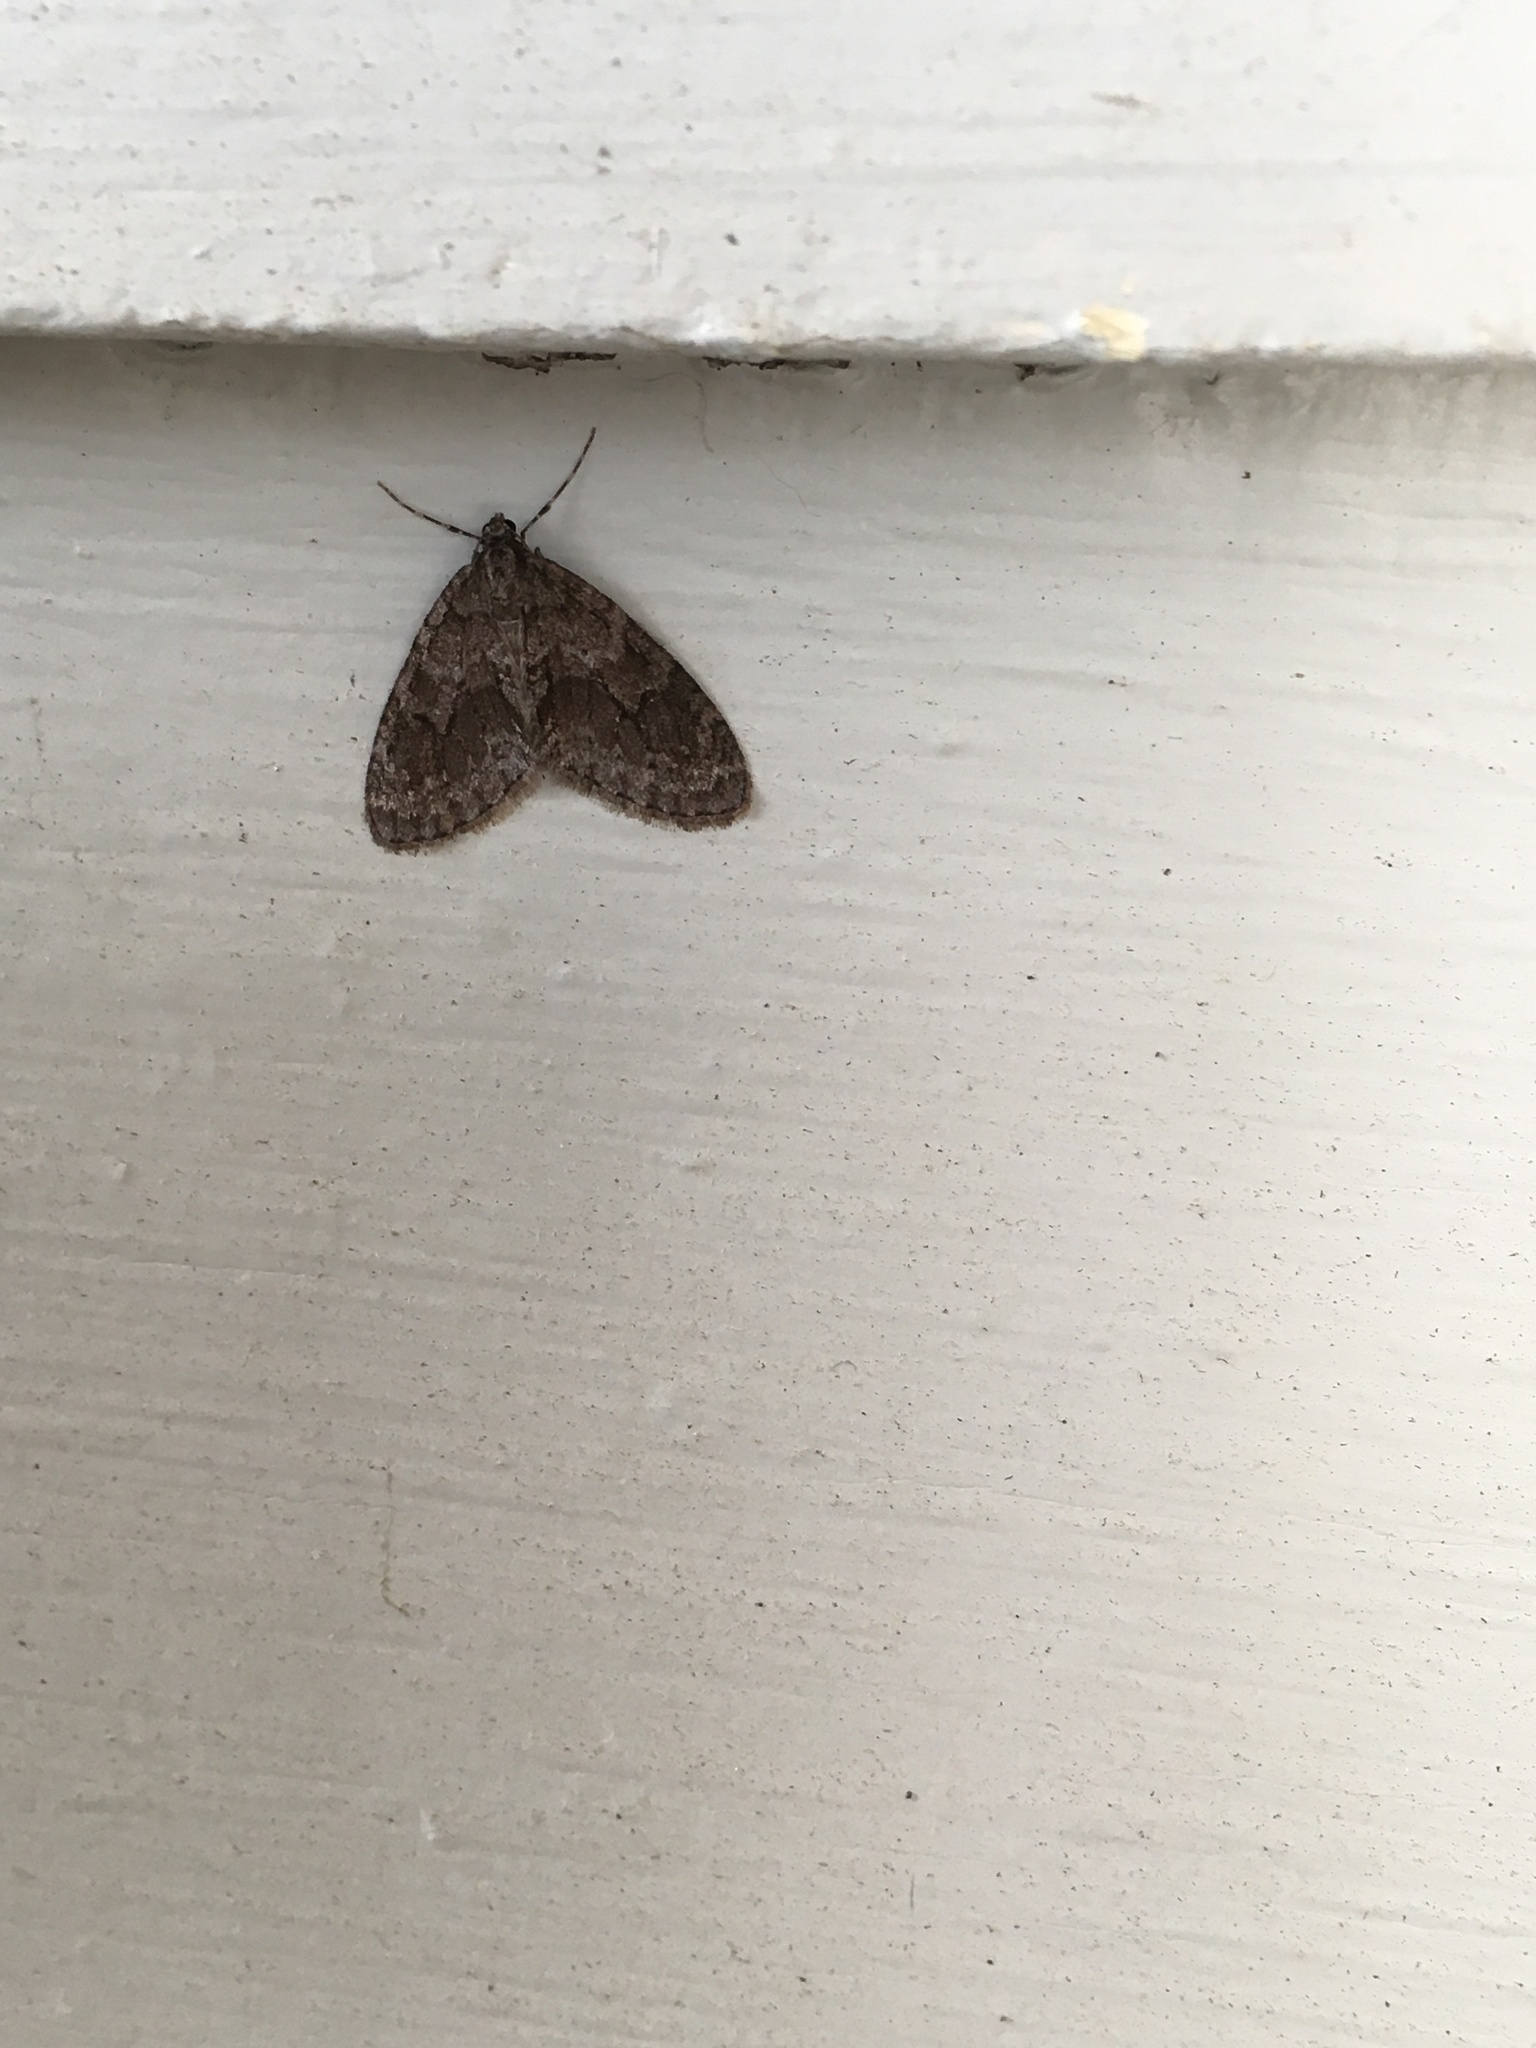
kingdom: Animalia
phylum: Arthropoda
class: Insecta
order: Lepidoptera
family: Geometridae
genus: Cladara
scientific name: Cladara limitaria
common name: Mottled gray carpet
